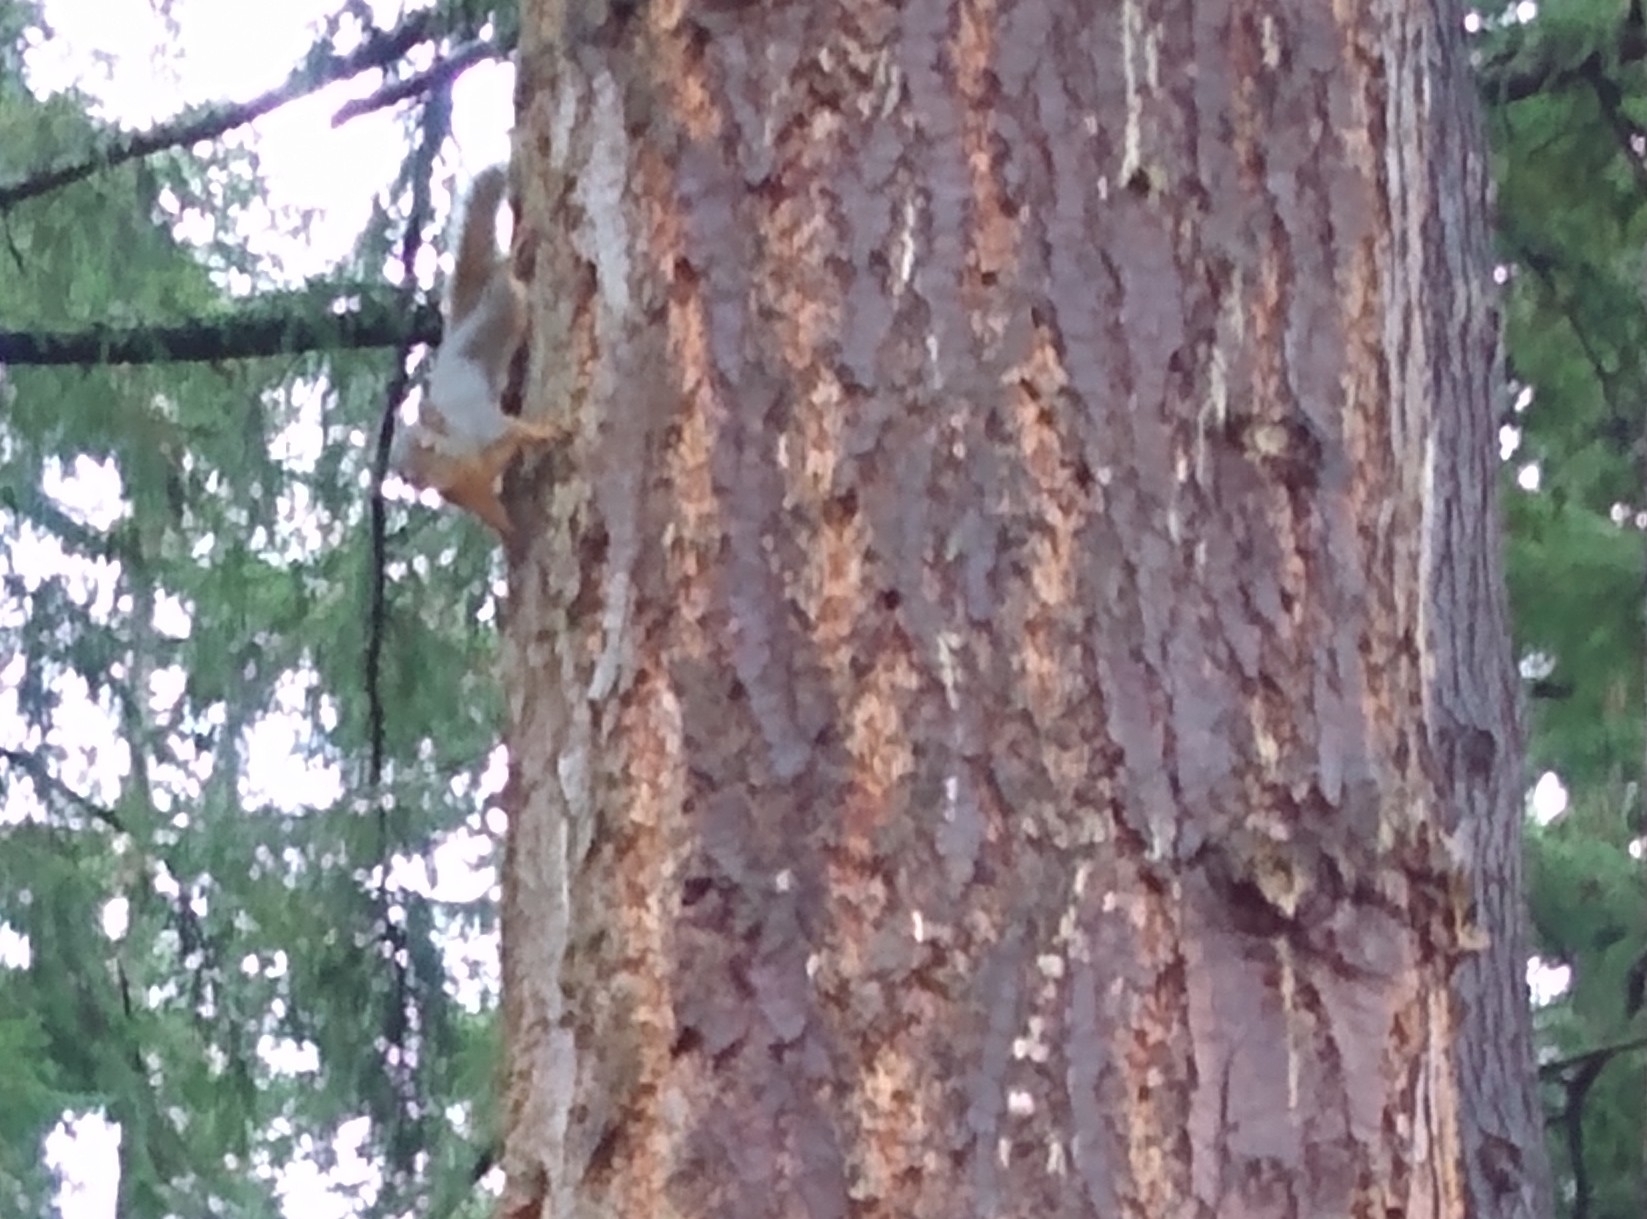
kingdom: Animalia
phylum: Chordata
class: Mammalia
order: Rodentia
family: Sciuridae
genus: Tamiasciurus
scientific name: Tamiasciurus douglasii
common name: Douglas's squirrel
